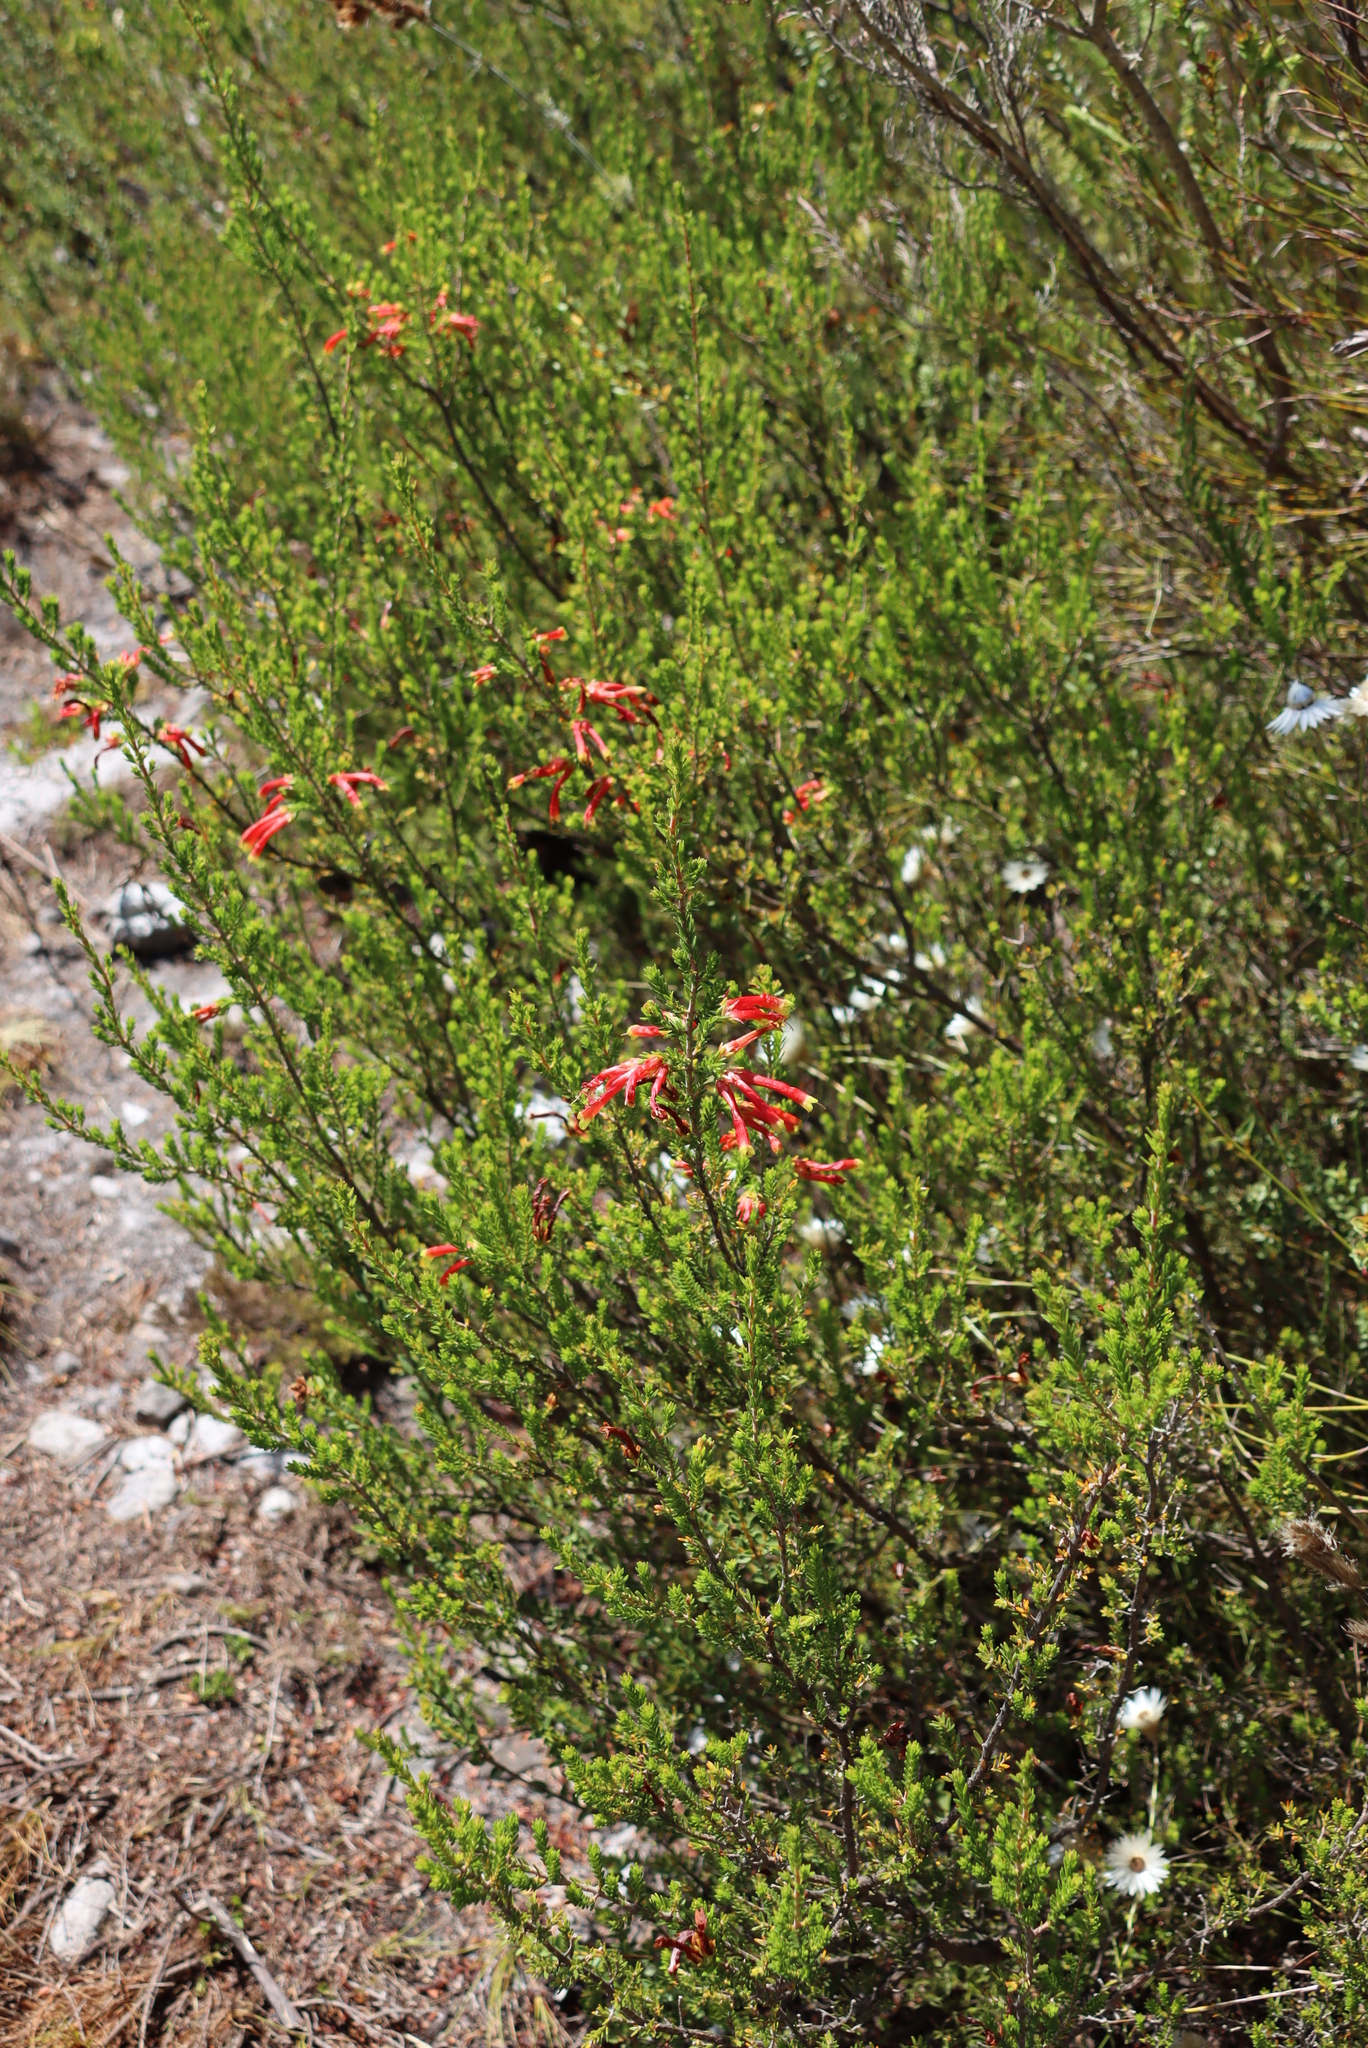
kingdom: Plantae
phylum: Tracheophyta
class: Magnoliopsida
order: Ericales
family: Ericaceae
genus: Erica
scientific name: Erica discolor
